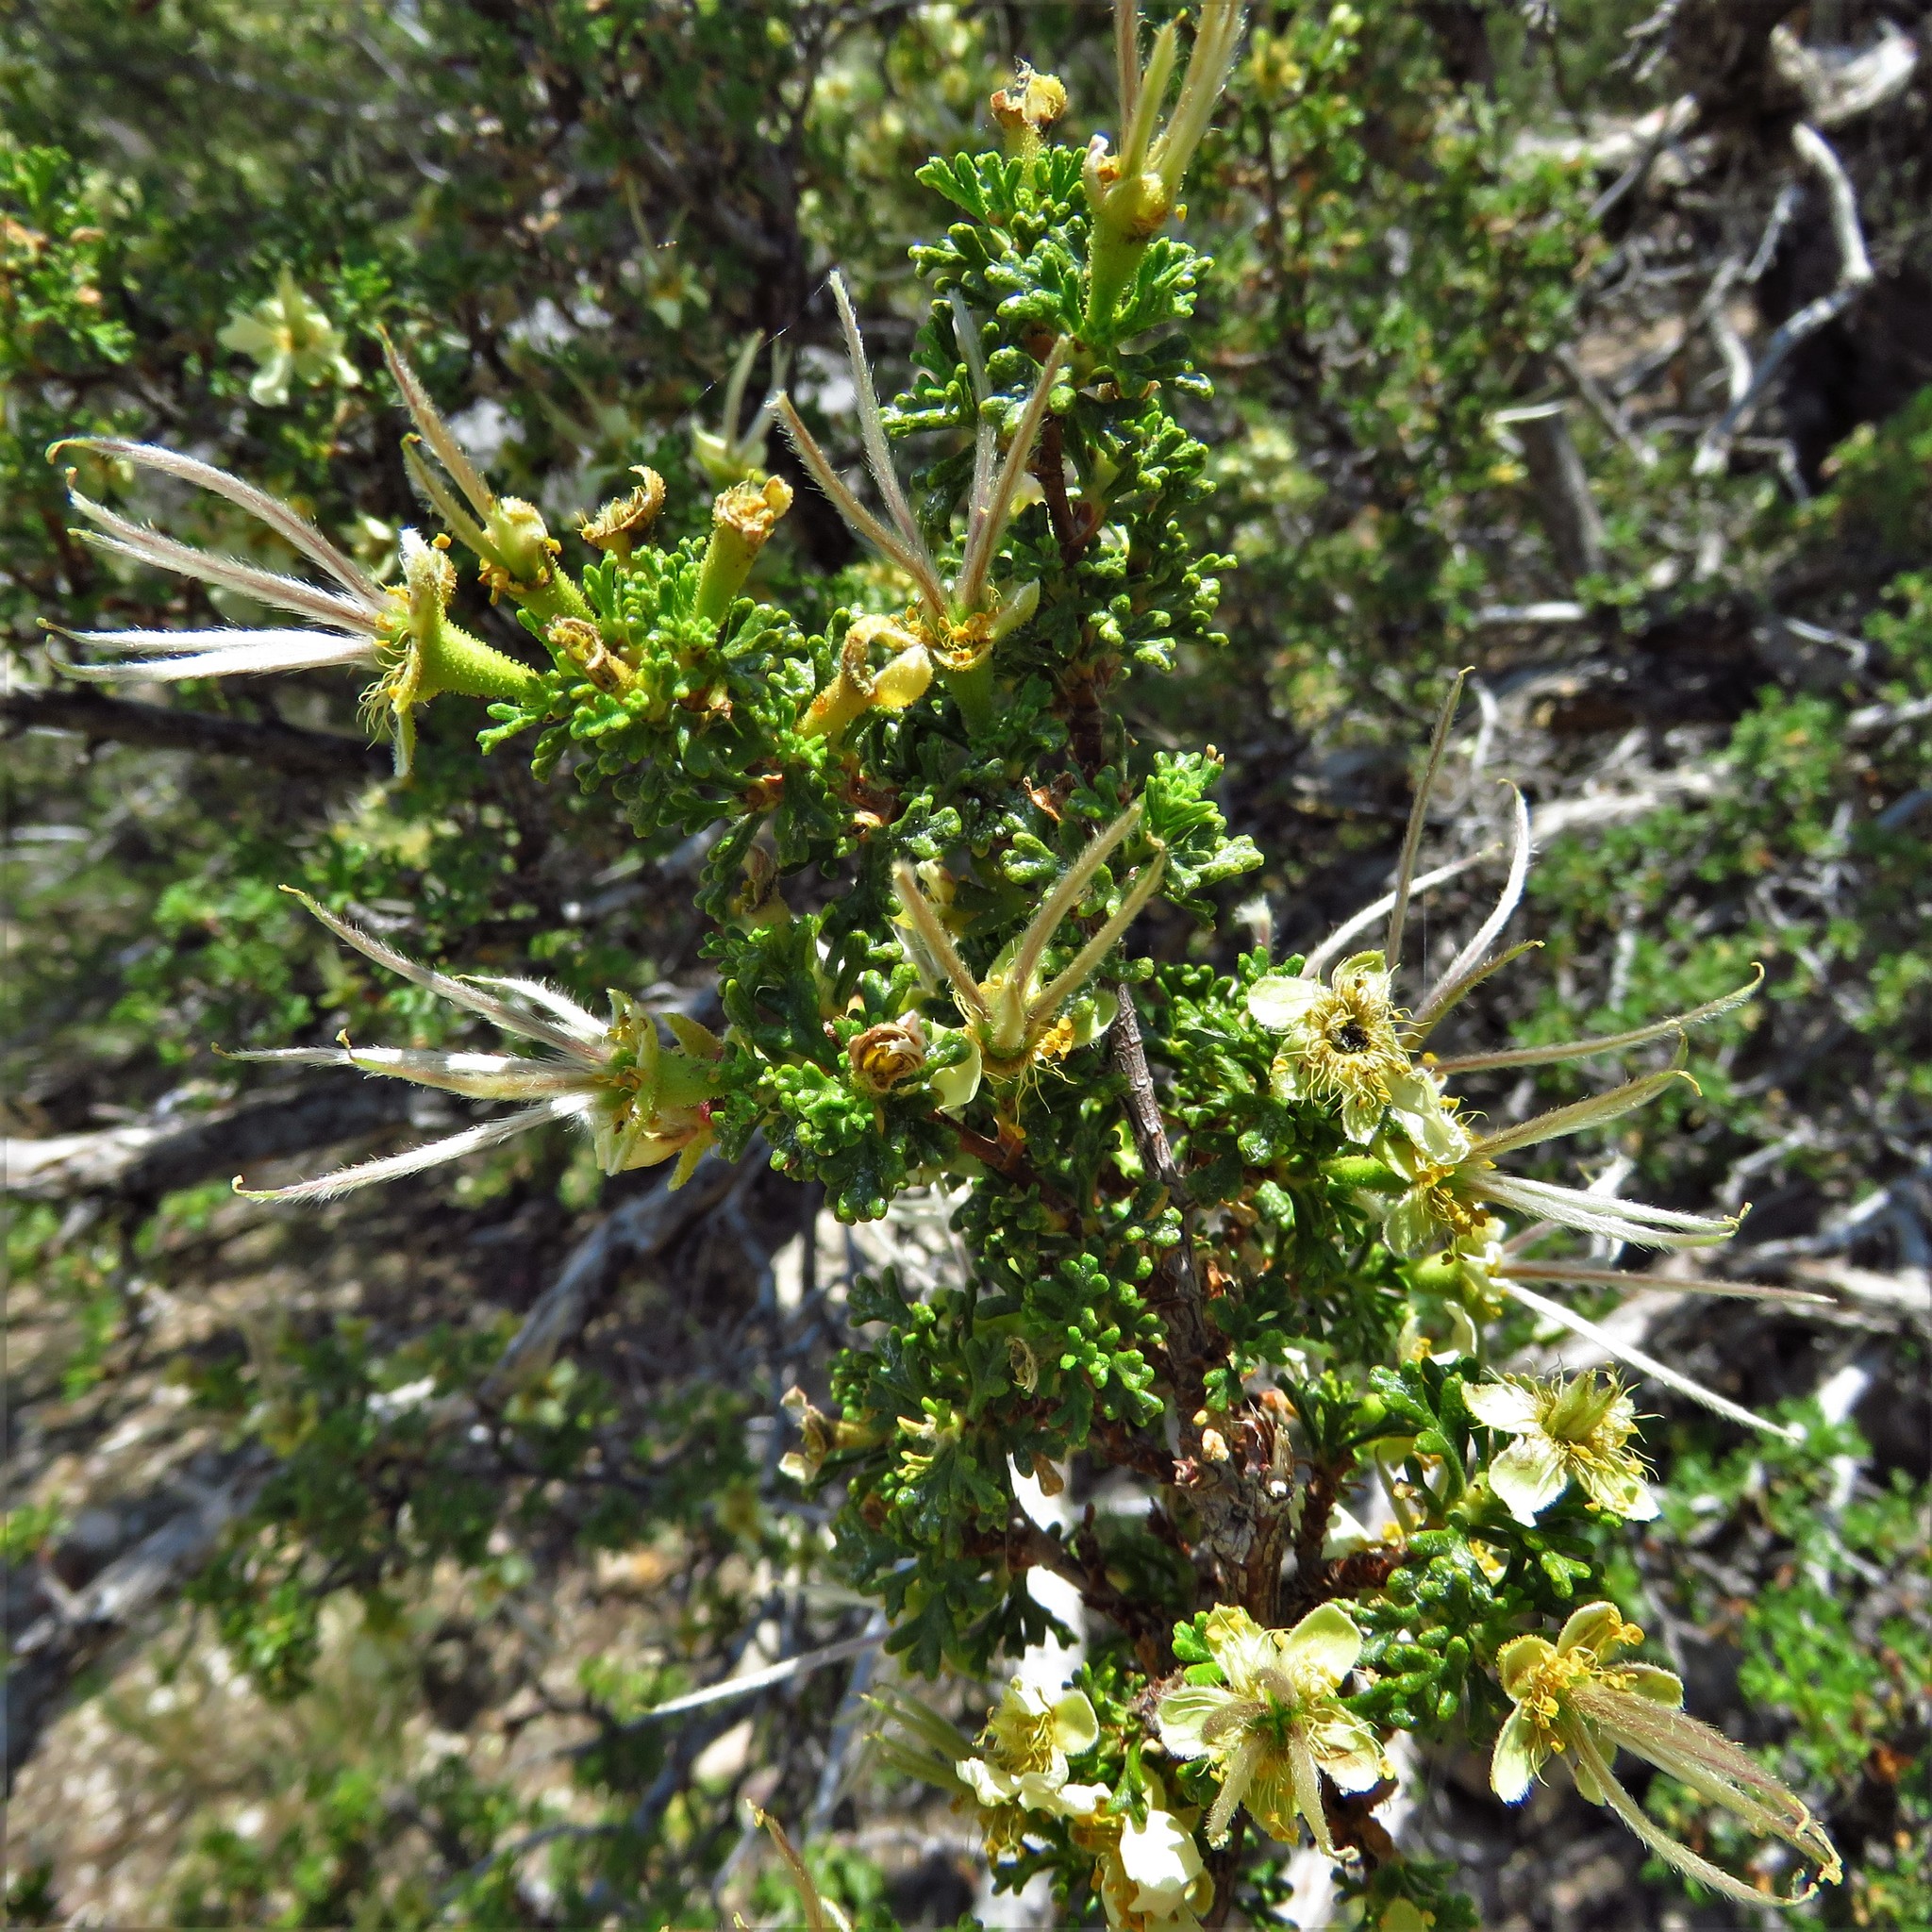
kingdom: Plantae
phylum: Tracheophyta
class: Magnoliopsida
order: Rosales
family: Rosaceae
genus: Purshia
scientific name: Purshia stansburiana
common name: Stansbury's cliffrose
